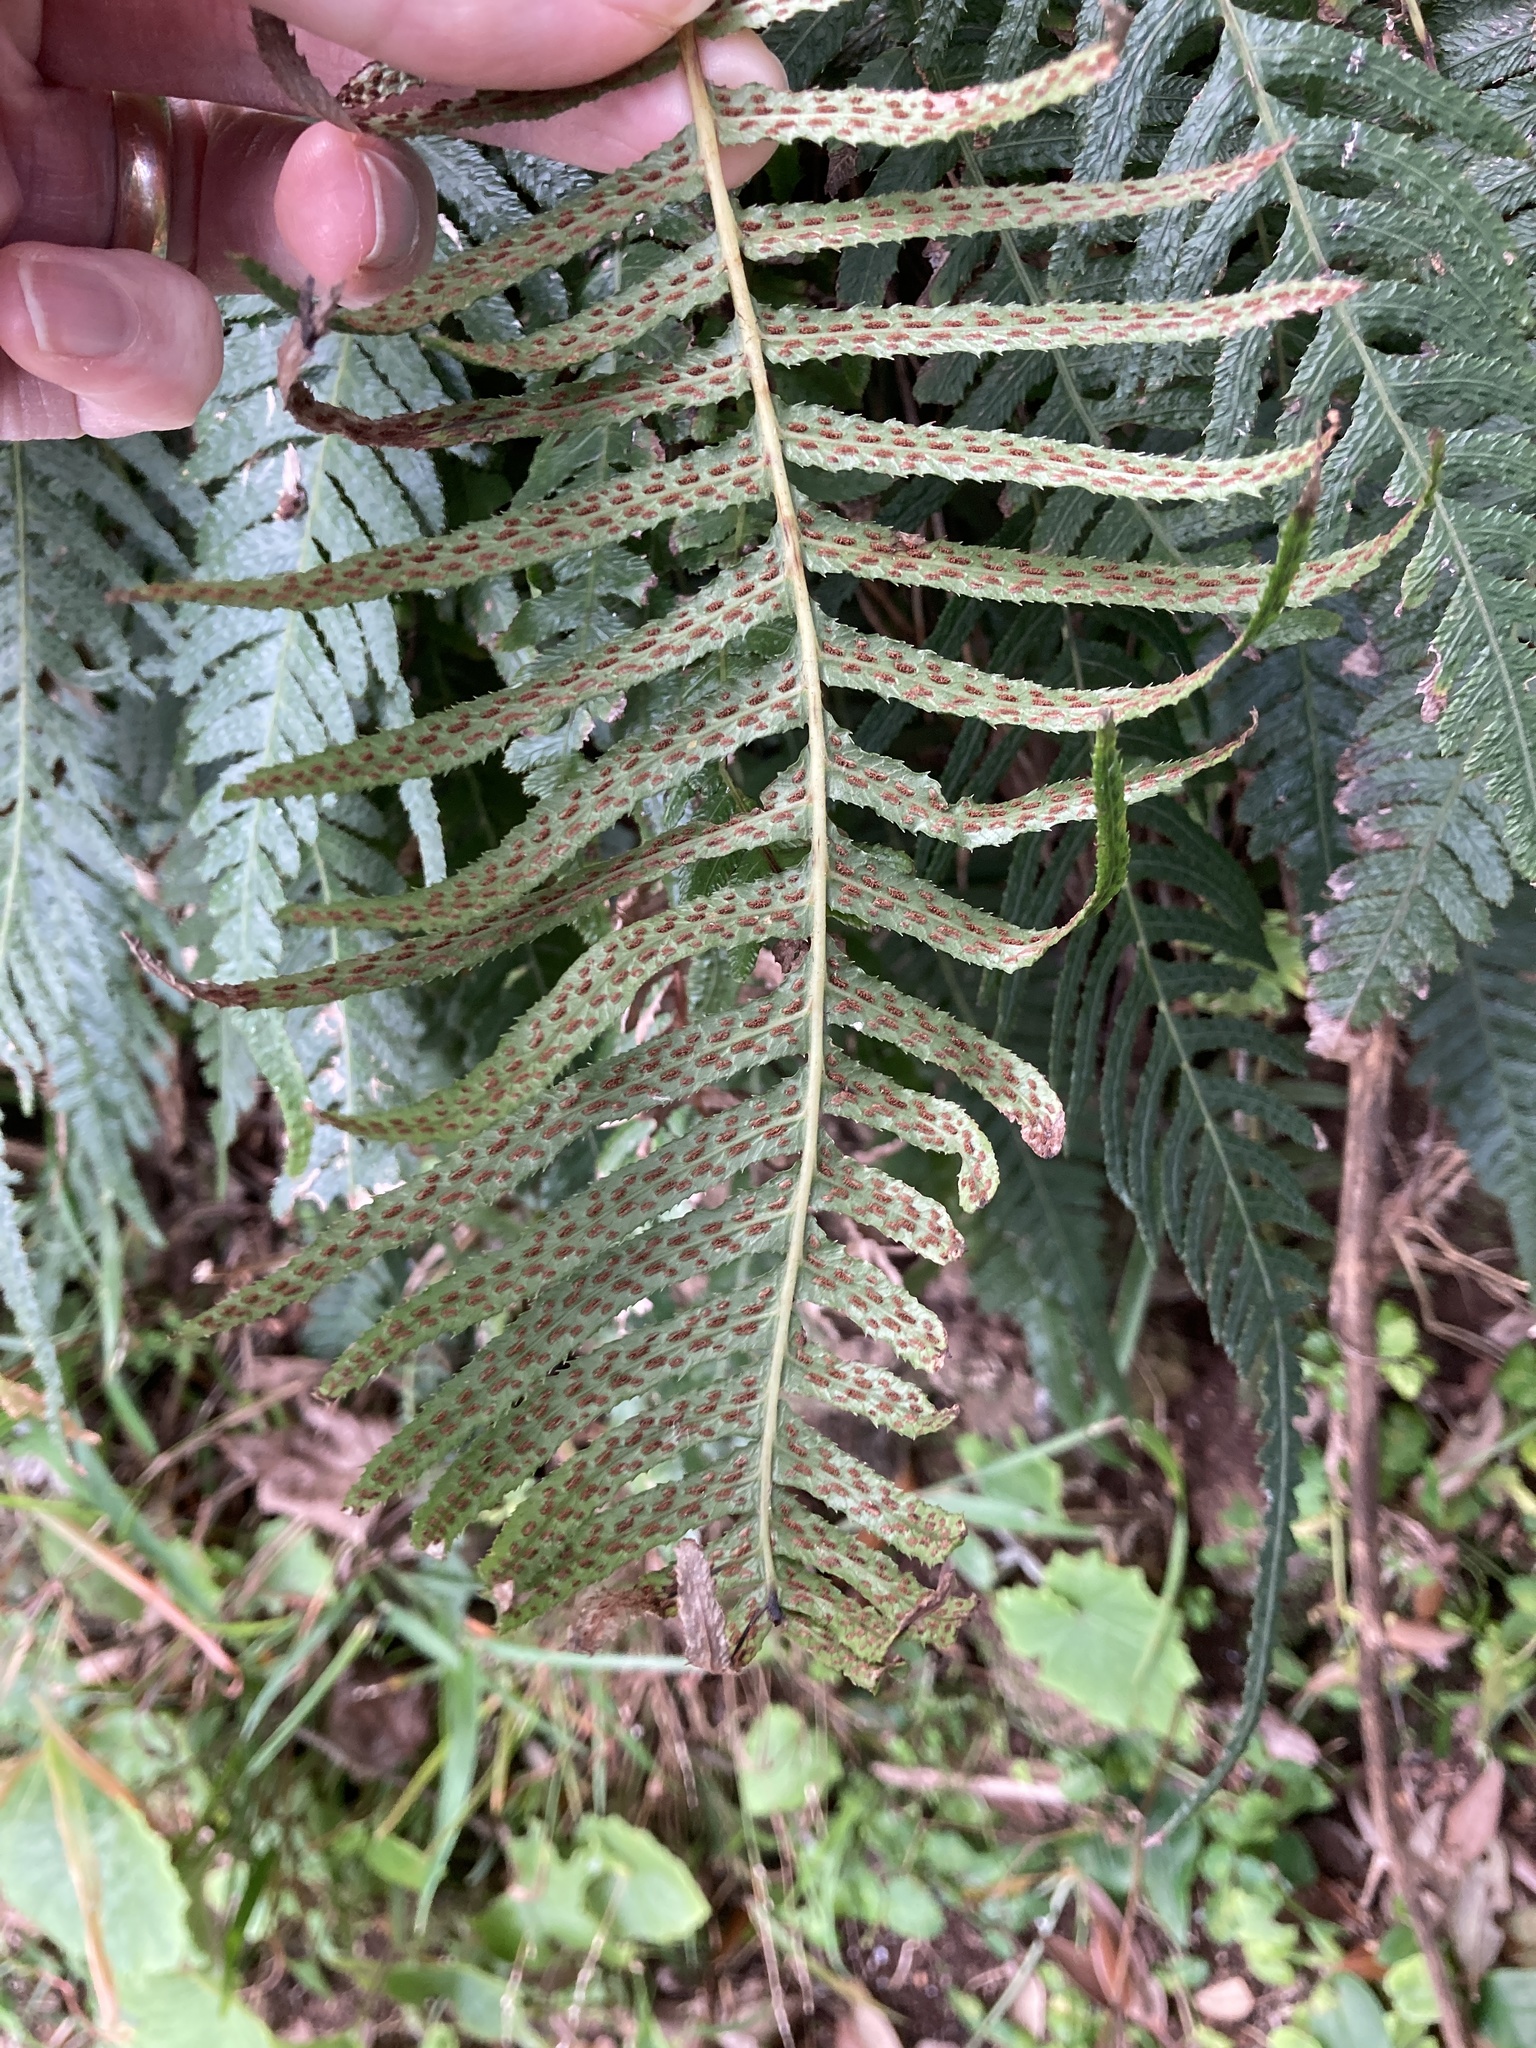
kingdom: Plantae
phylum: Tracheophyta
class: Polypodiopsida
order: Polypodiales
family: Blechnaceae
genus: Doodia
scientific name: Doodia australis
